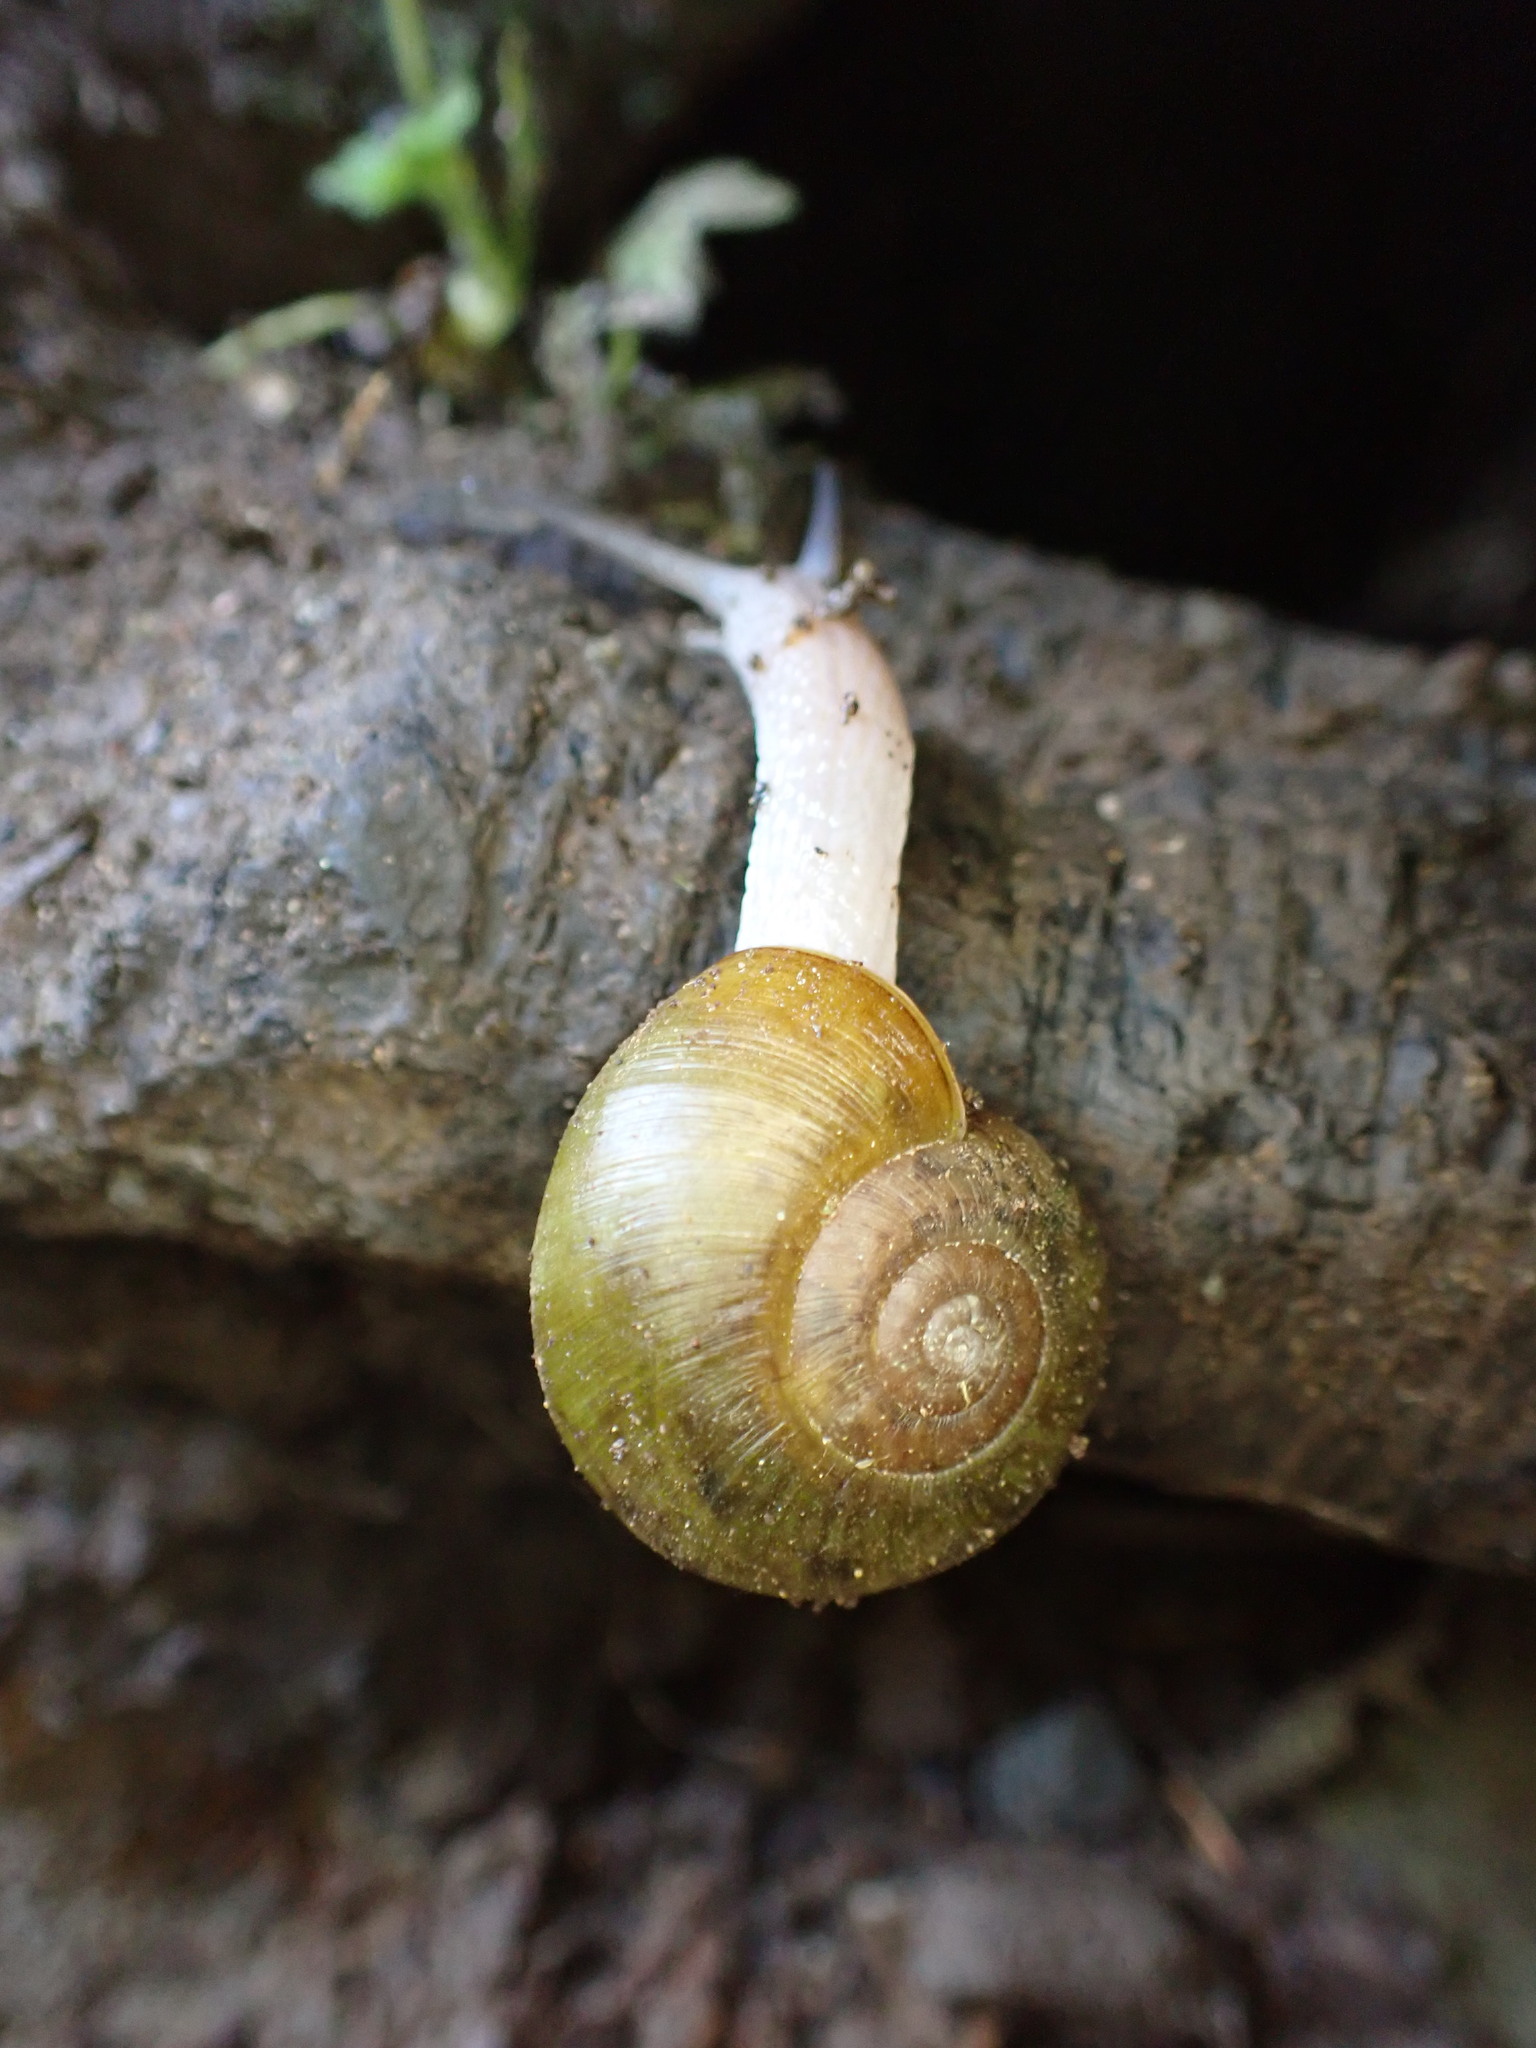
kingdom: Animalia
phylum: Mollusca
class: Gastropoda
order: Stylommatophora
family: Haplotrematidae
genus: Haplotrema
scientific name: Haplotrema vancouverense
